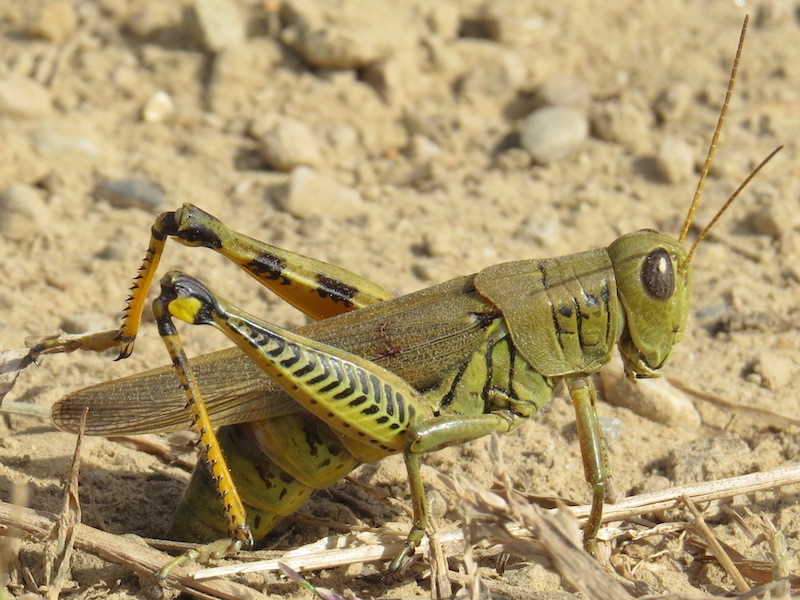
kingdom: Animalia
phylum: Arthropoda
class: Insecta
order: Orthoptera
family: Acrididae
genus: Melanoplus
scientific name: Melanoplus differentialis
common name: Differential grasshopper
